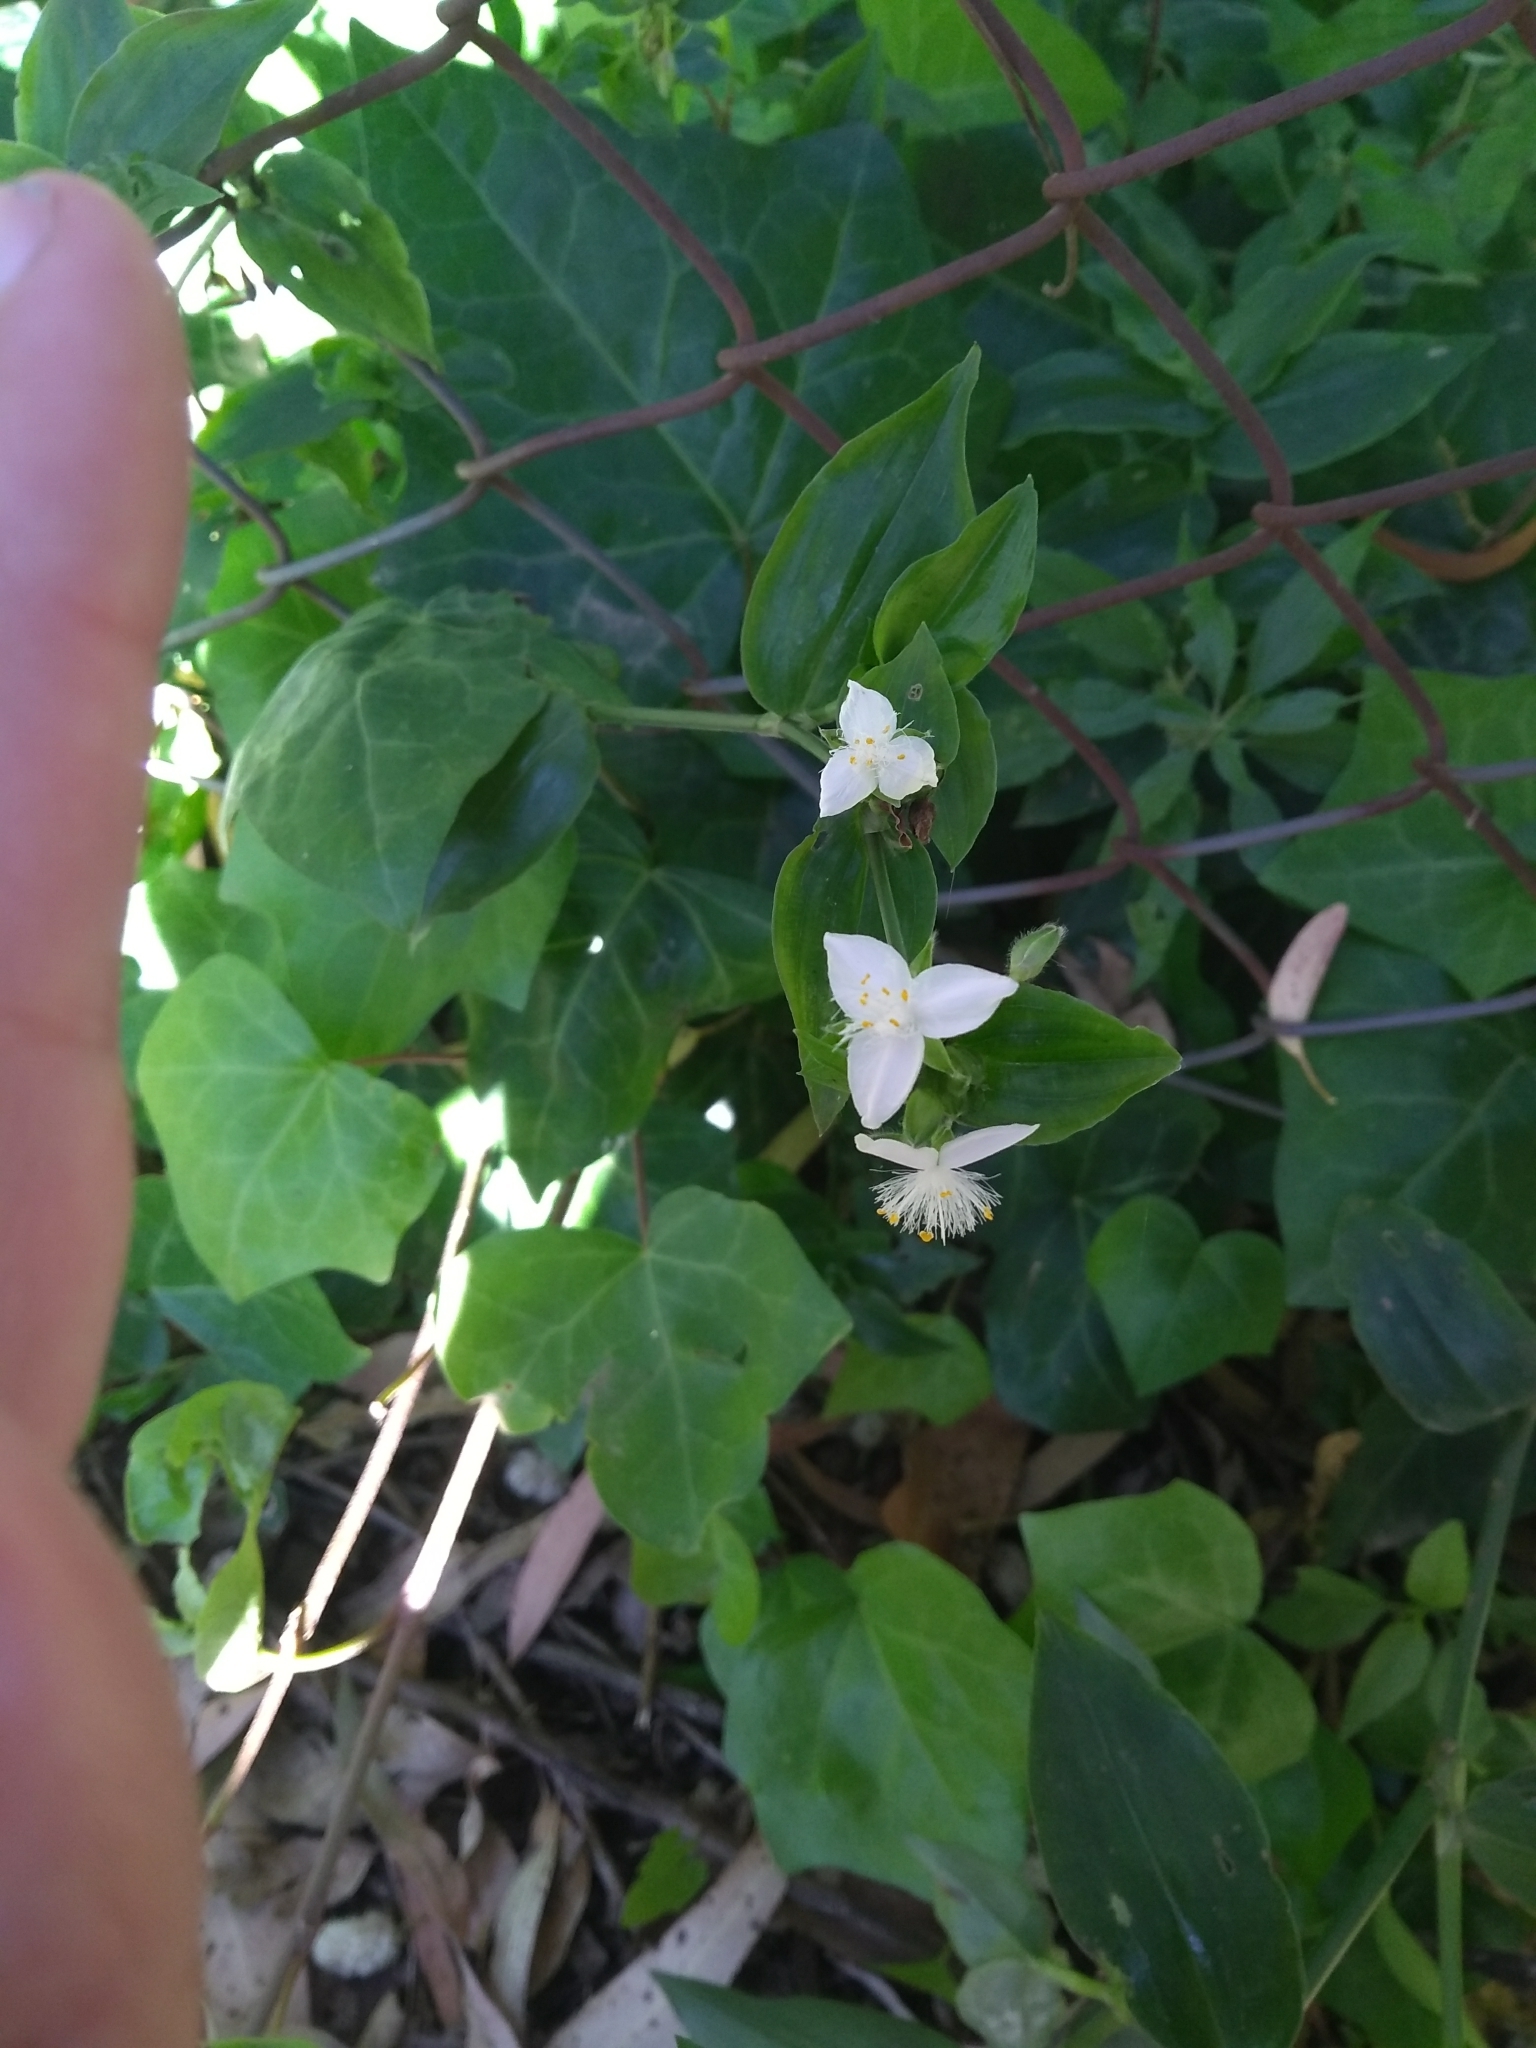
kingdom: Plantae
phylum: Tracheophyta
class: Liliopsida
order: Commelinales
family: Commelinaceae
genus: Tradescantia
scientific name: Tradescantia fluminensis
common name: Wandering-jew
